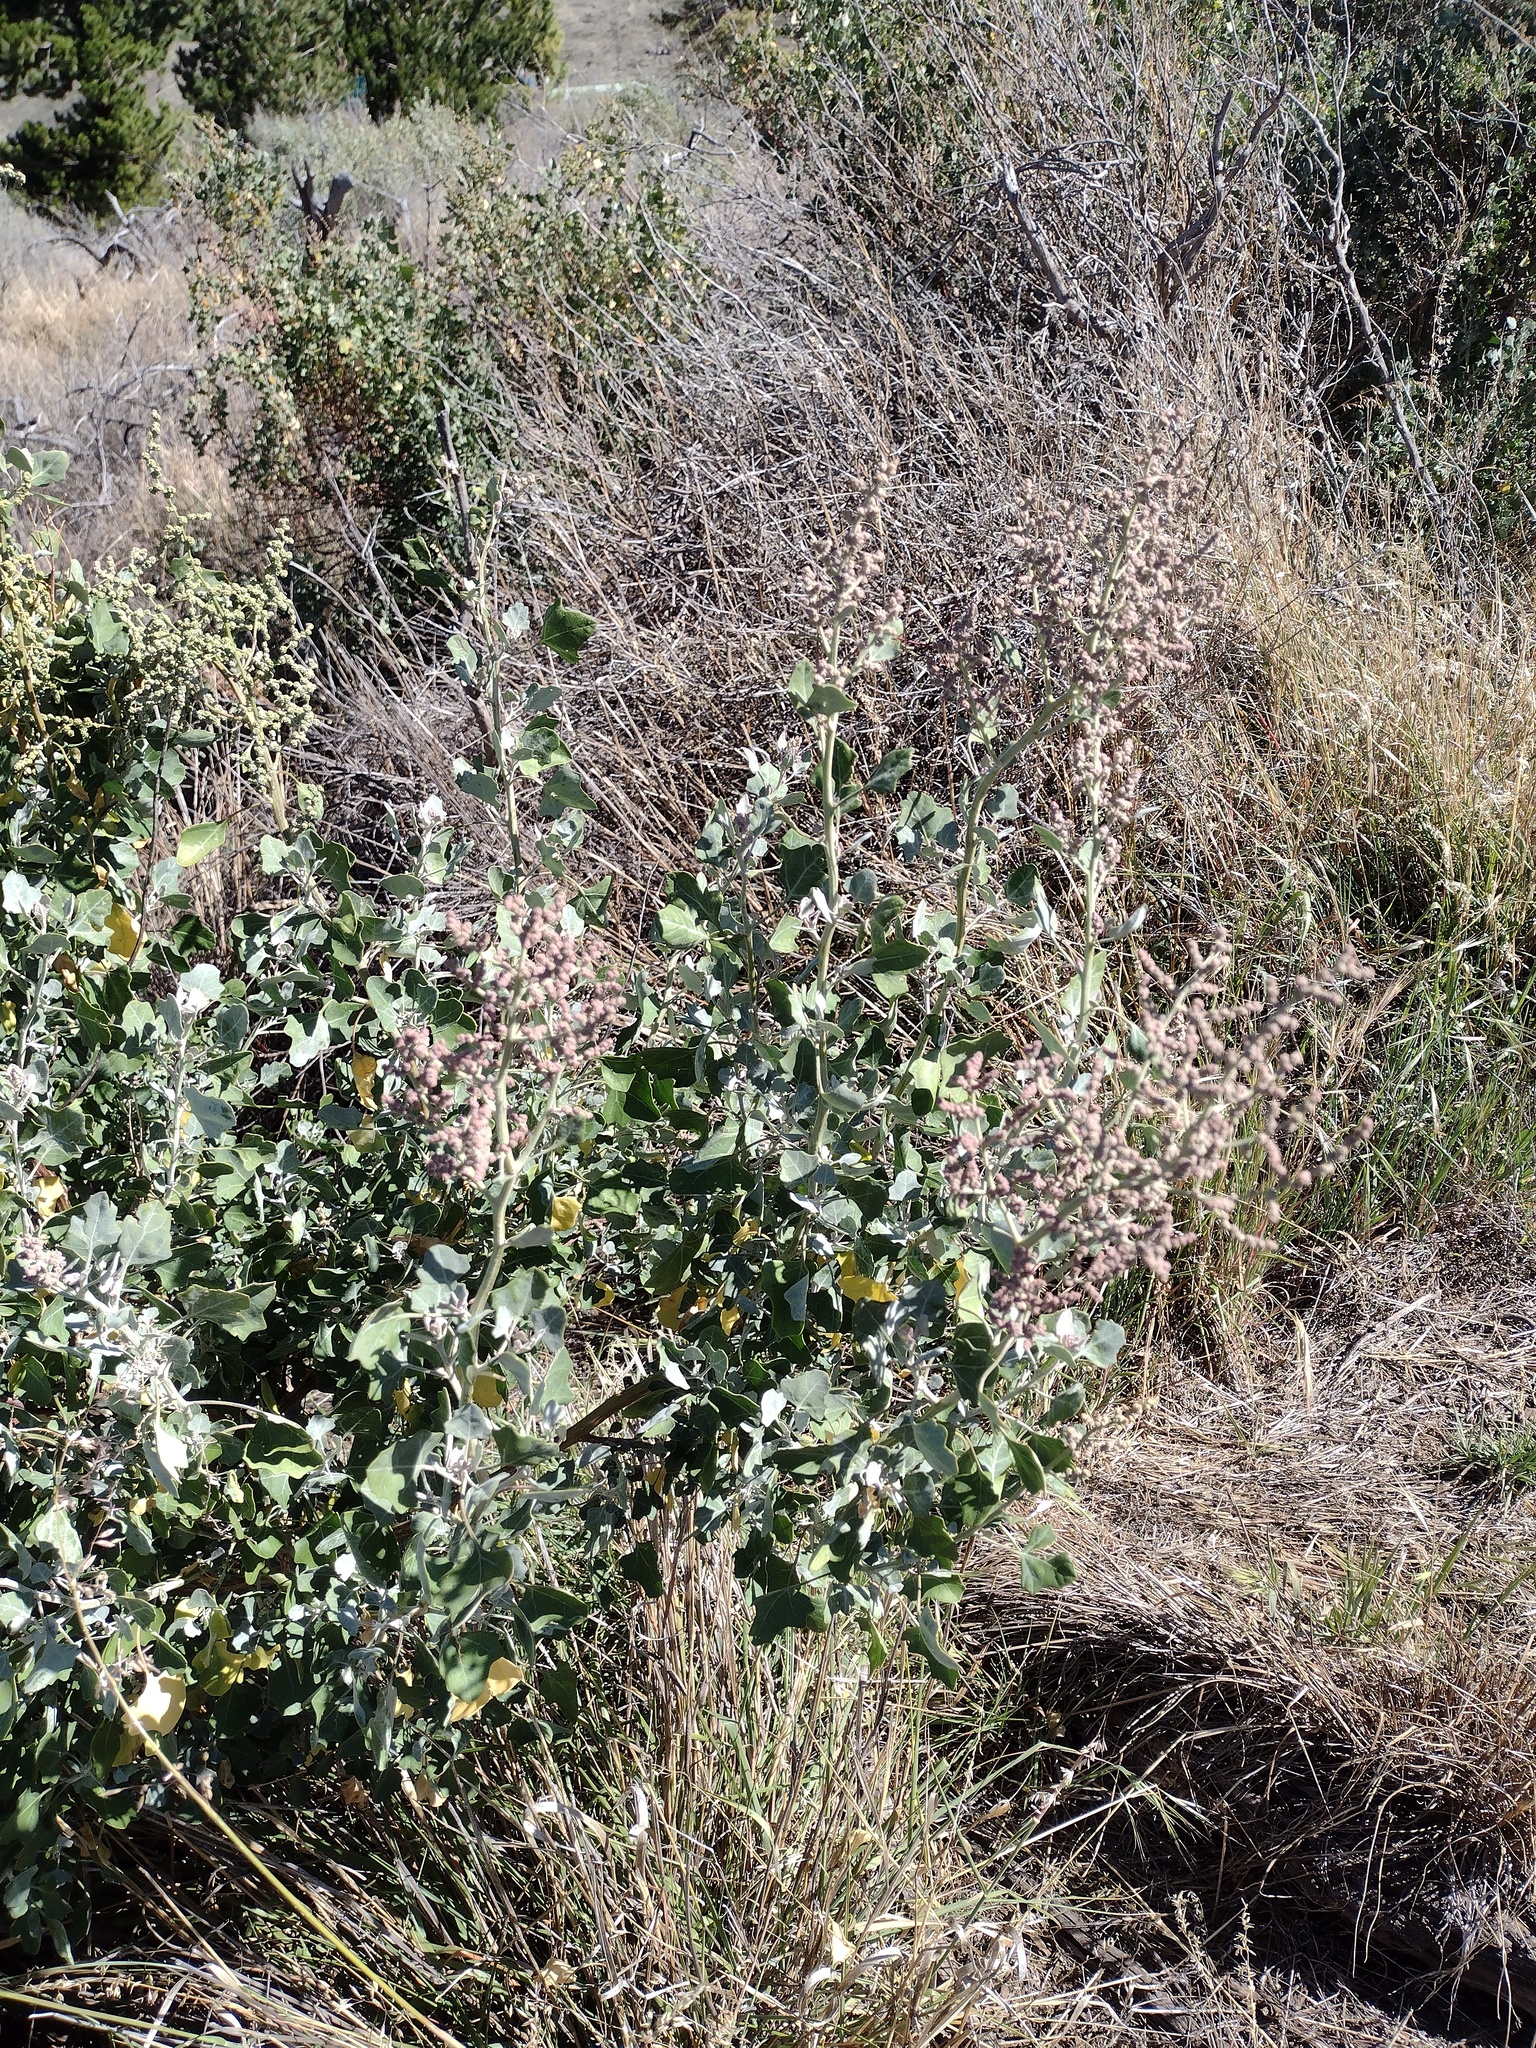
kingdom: Plantae
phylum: Tracheophyta
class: Magnoliopsida
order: Caryophyllales
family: Amaranthaceae
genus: Chenopodium
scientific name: Chenopodium oahuense
